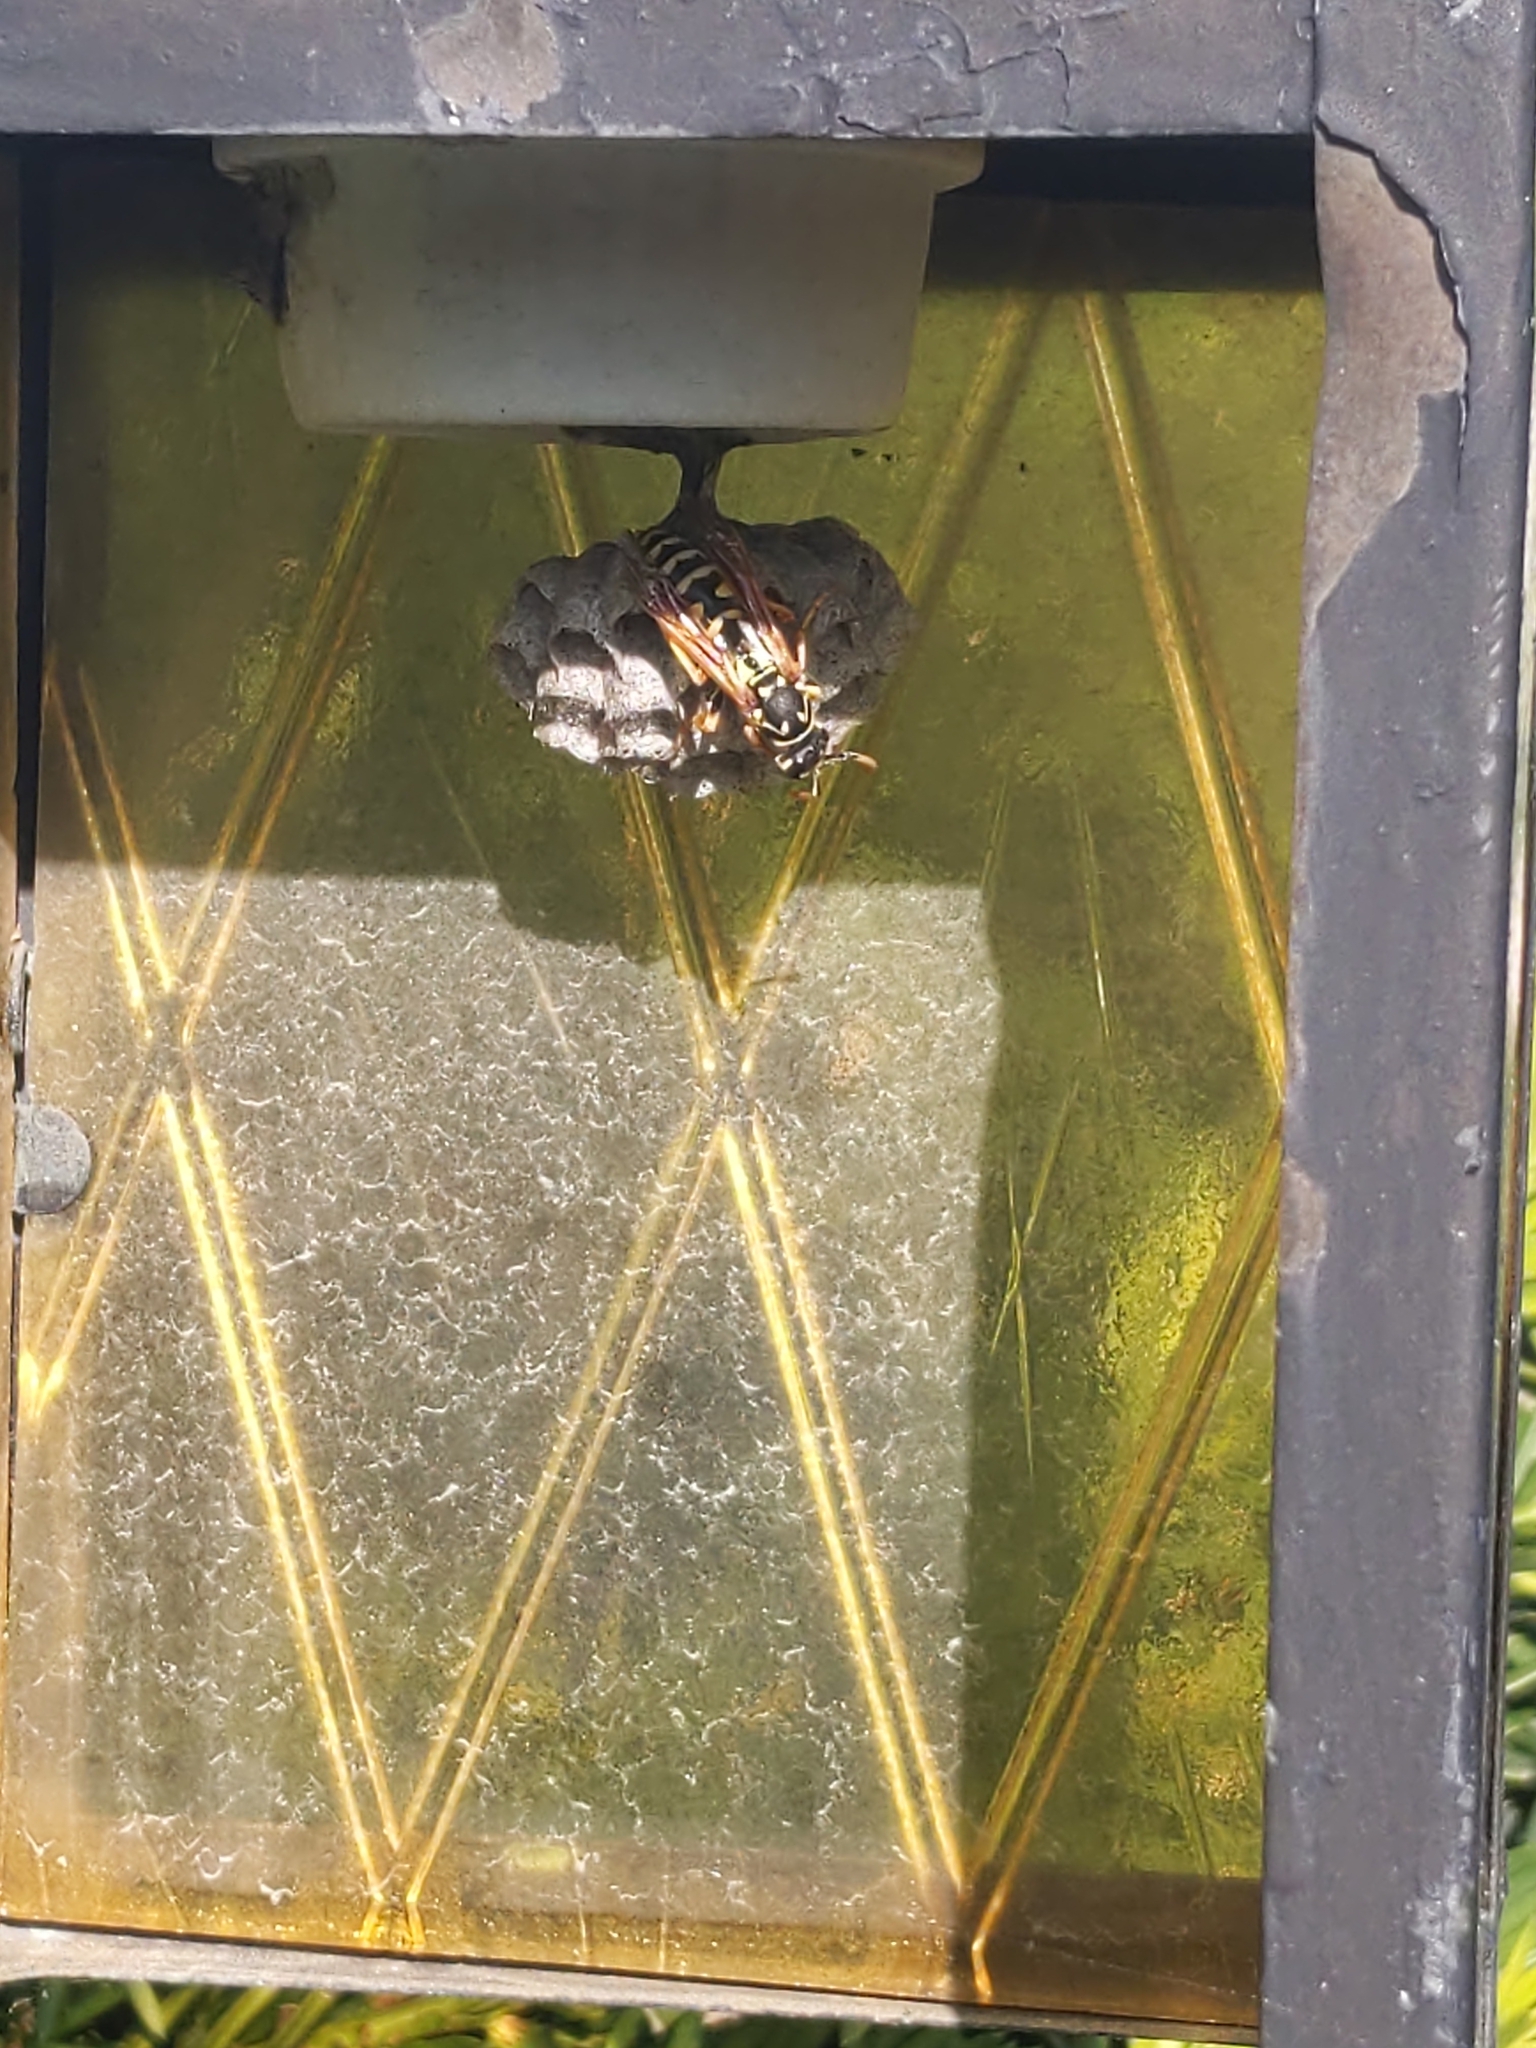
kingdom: Animalia
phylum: Arthropoda
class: Insecta
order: Hymenoptera
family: Eumenidae
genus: Polistes
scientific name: Polistes dominula
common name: Paper wasp
